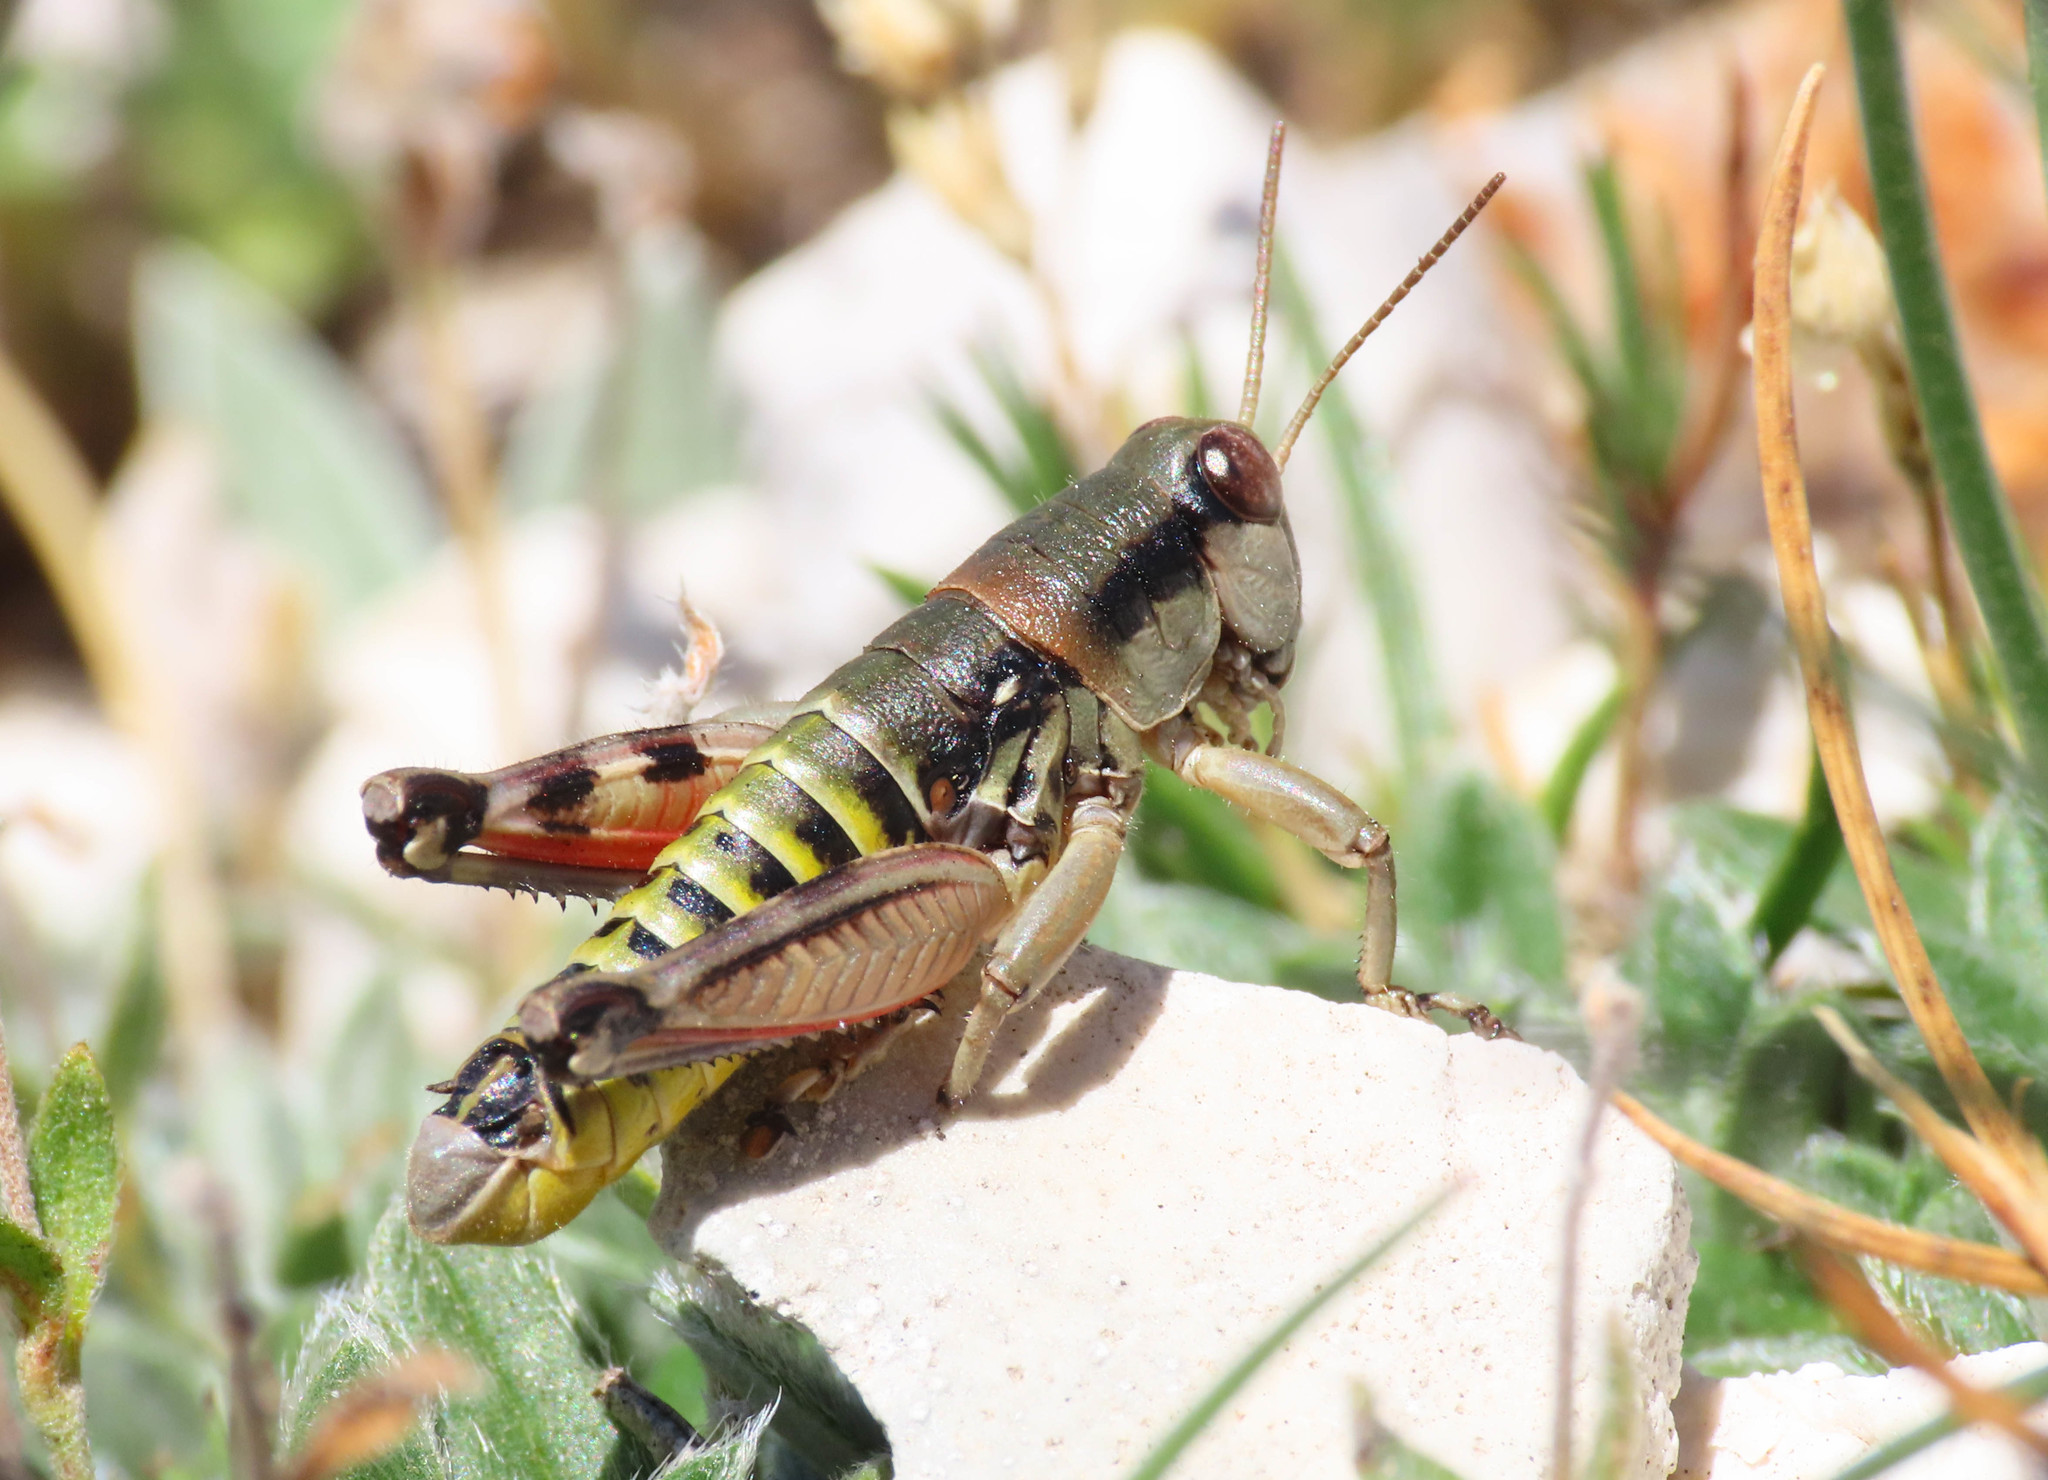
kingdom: Animalia
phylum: Arthropoda
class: Insecta
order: Orthoptera
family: Acrididae
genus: Italopodisma
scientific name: Italopodisma fiscellana
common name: Gran sasso apennine grasshopper
